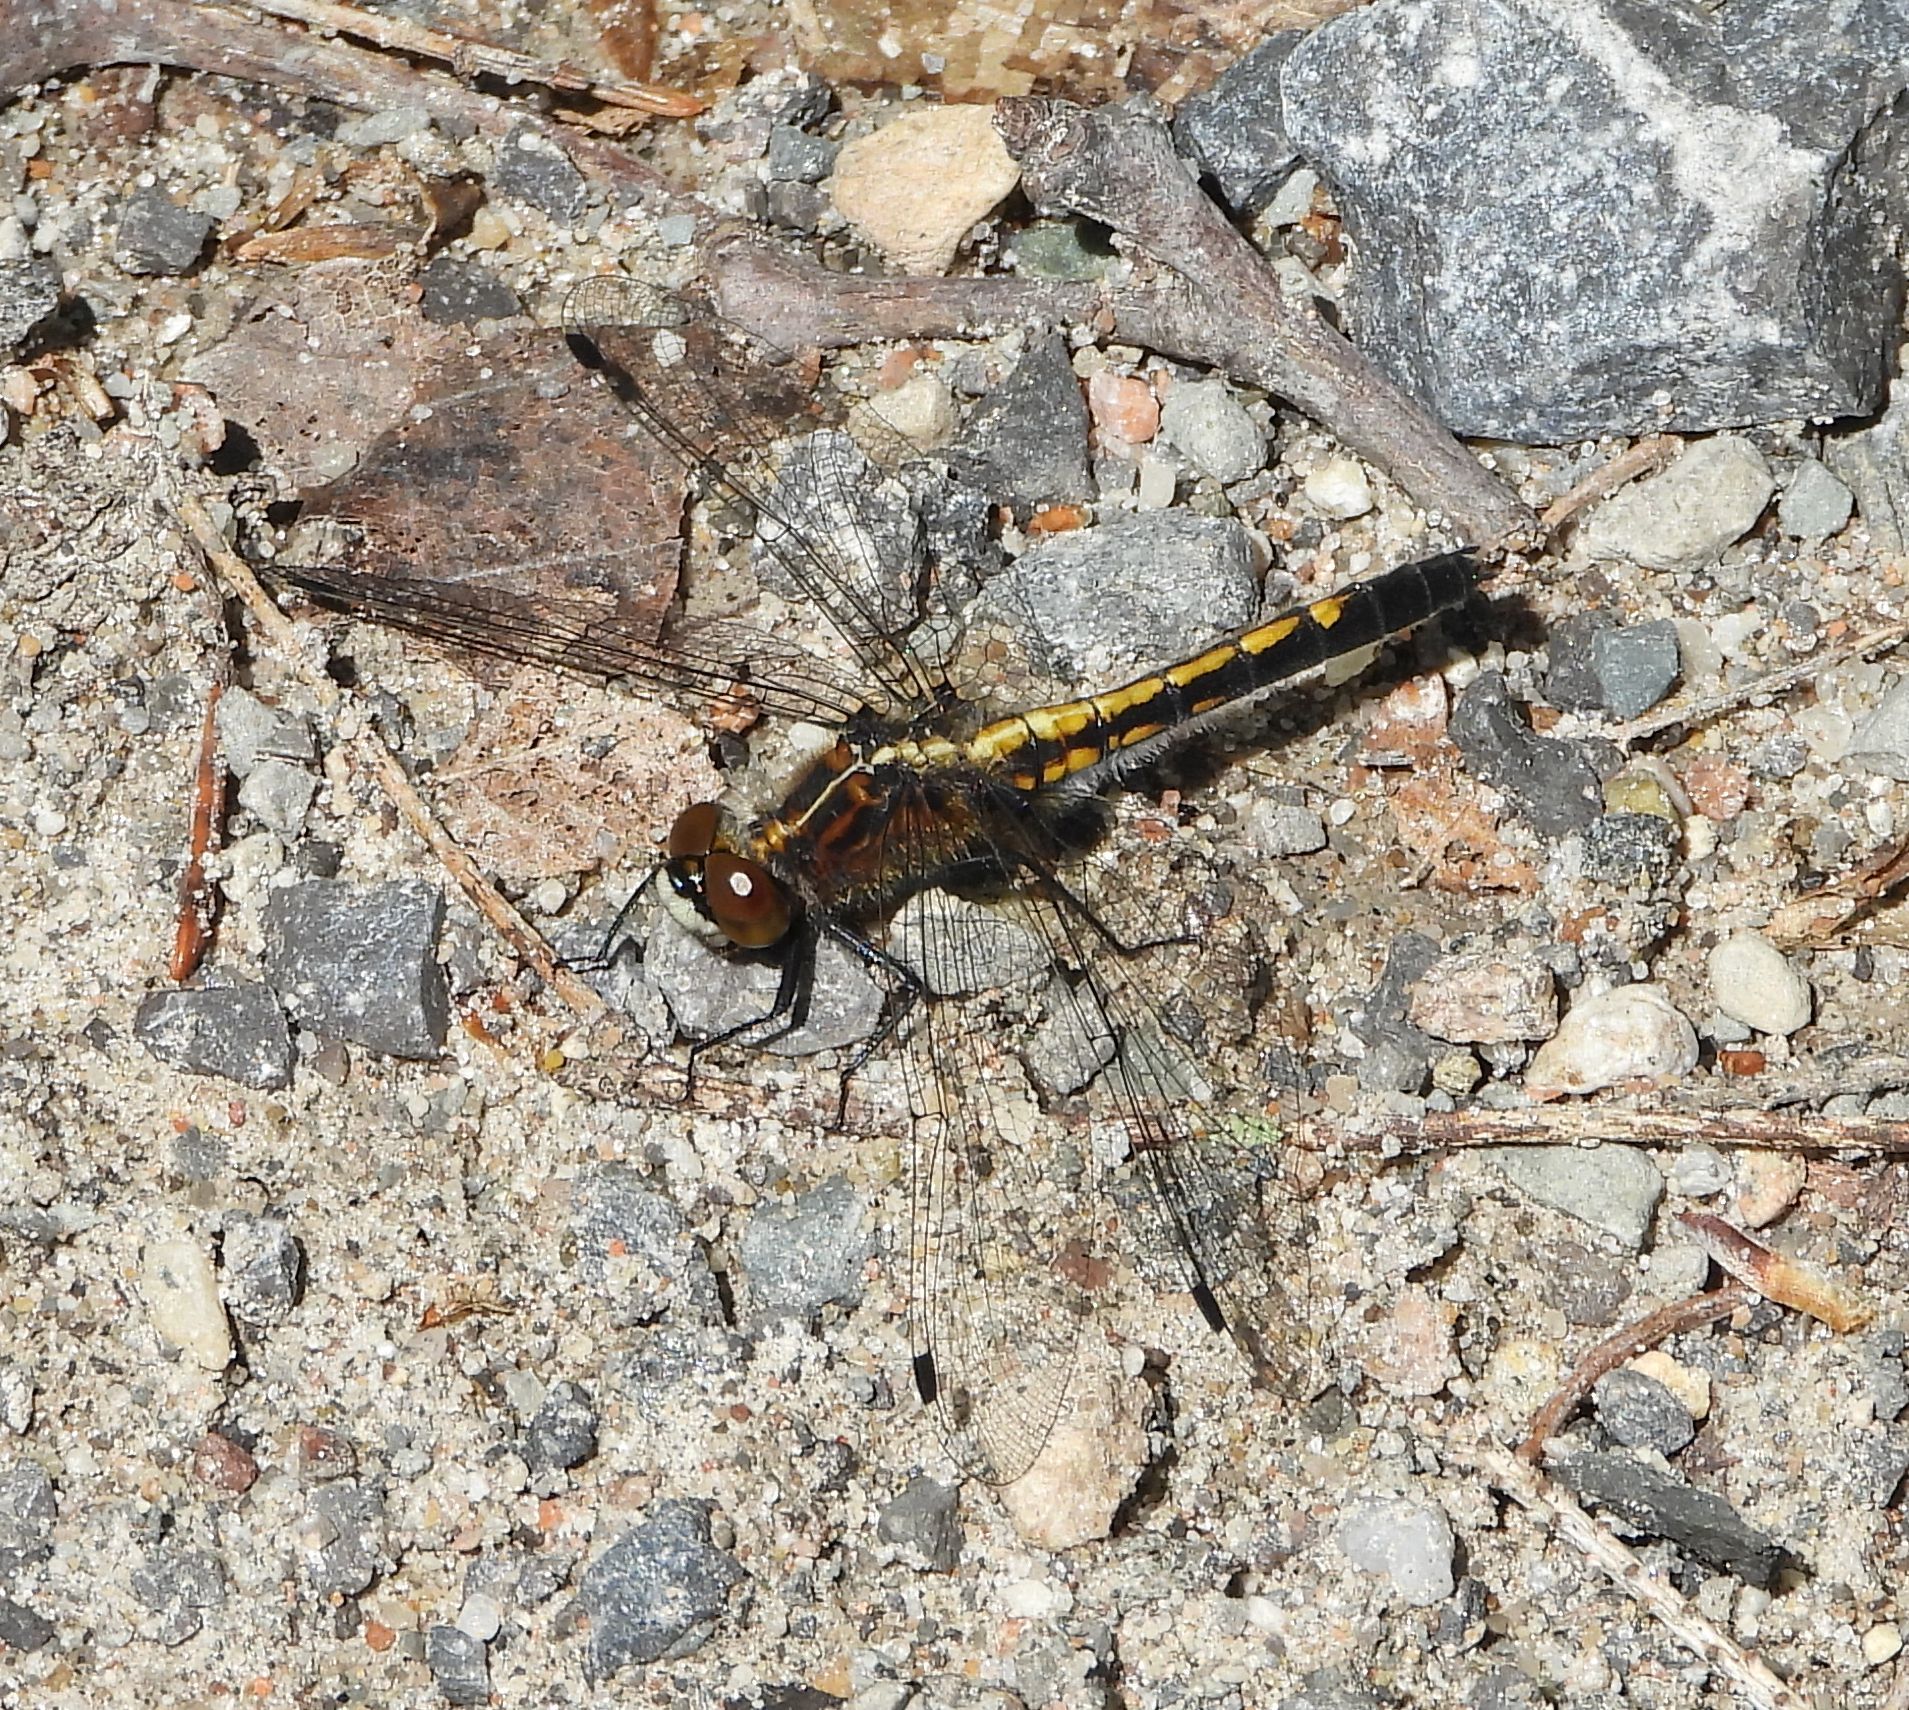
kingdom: Animalia
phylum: Arthropoda
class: Insecta
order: Odonata
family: Libellulidae
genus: Leucorrhinia
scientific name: Leucorrhinia intacta
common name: Dot-tailed whiteface
